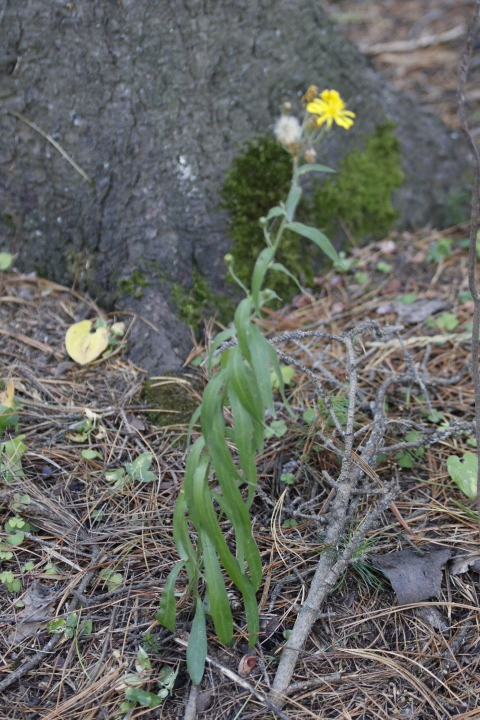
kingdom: Plantae
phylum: Tracheophyta
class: Magnoliopsida
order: Asterales
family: Asteraceae
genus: Hieracium
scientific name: Hieracium umbellatum
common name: Northern hawkweed
